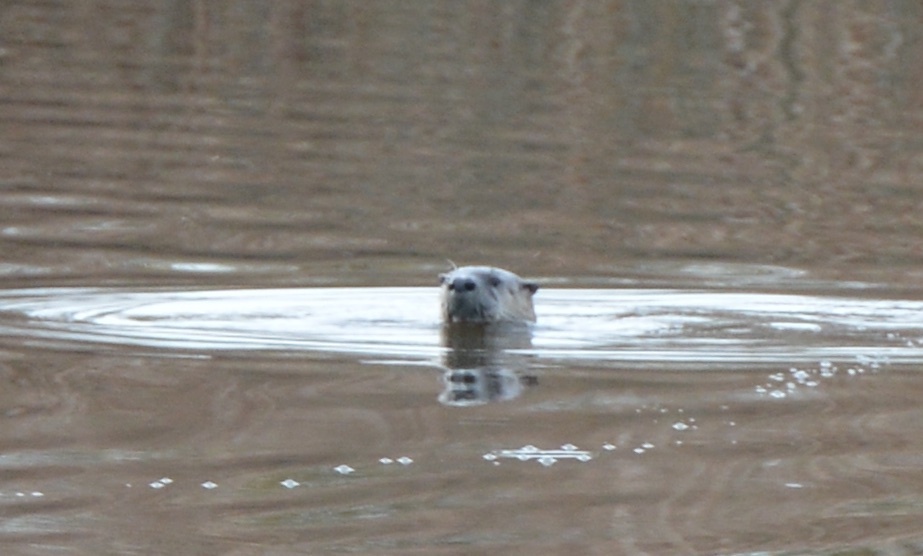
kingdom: Animalia
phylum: Chordata
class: Mammalia
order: Carnivora
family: Mustelidae
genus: Lontra
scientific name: Lontra canadensis
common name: North american river otter
